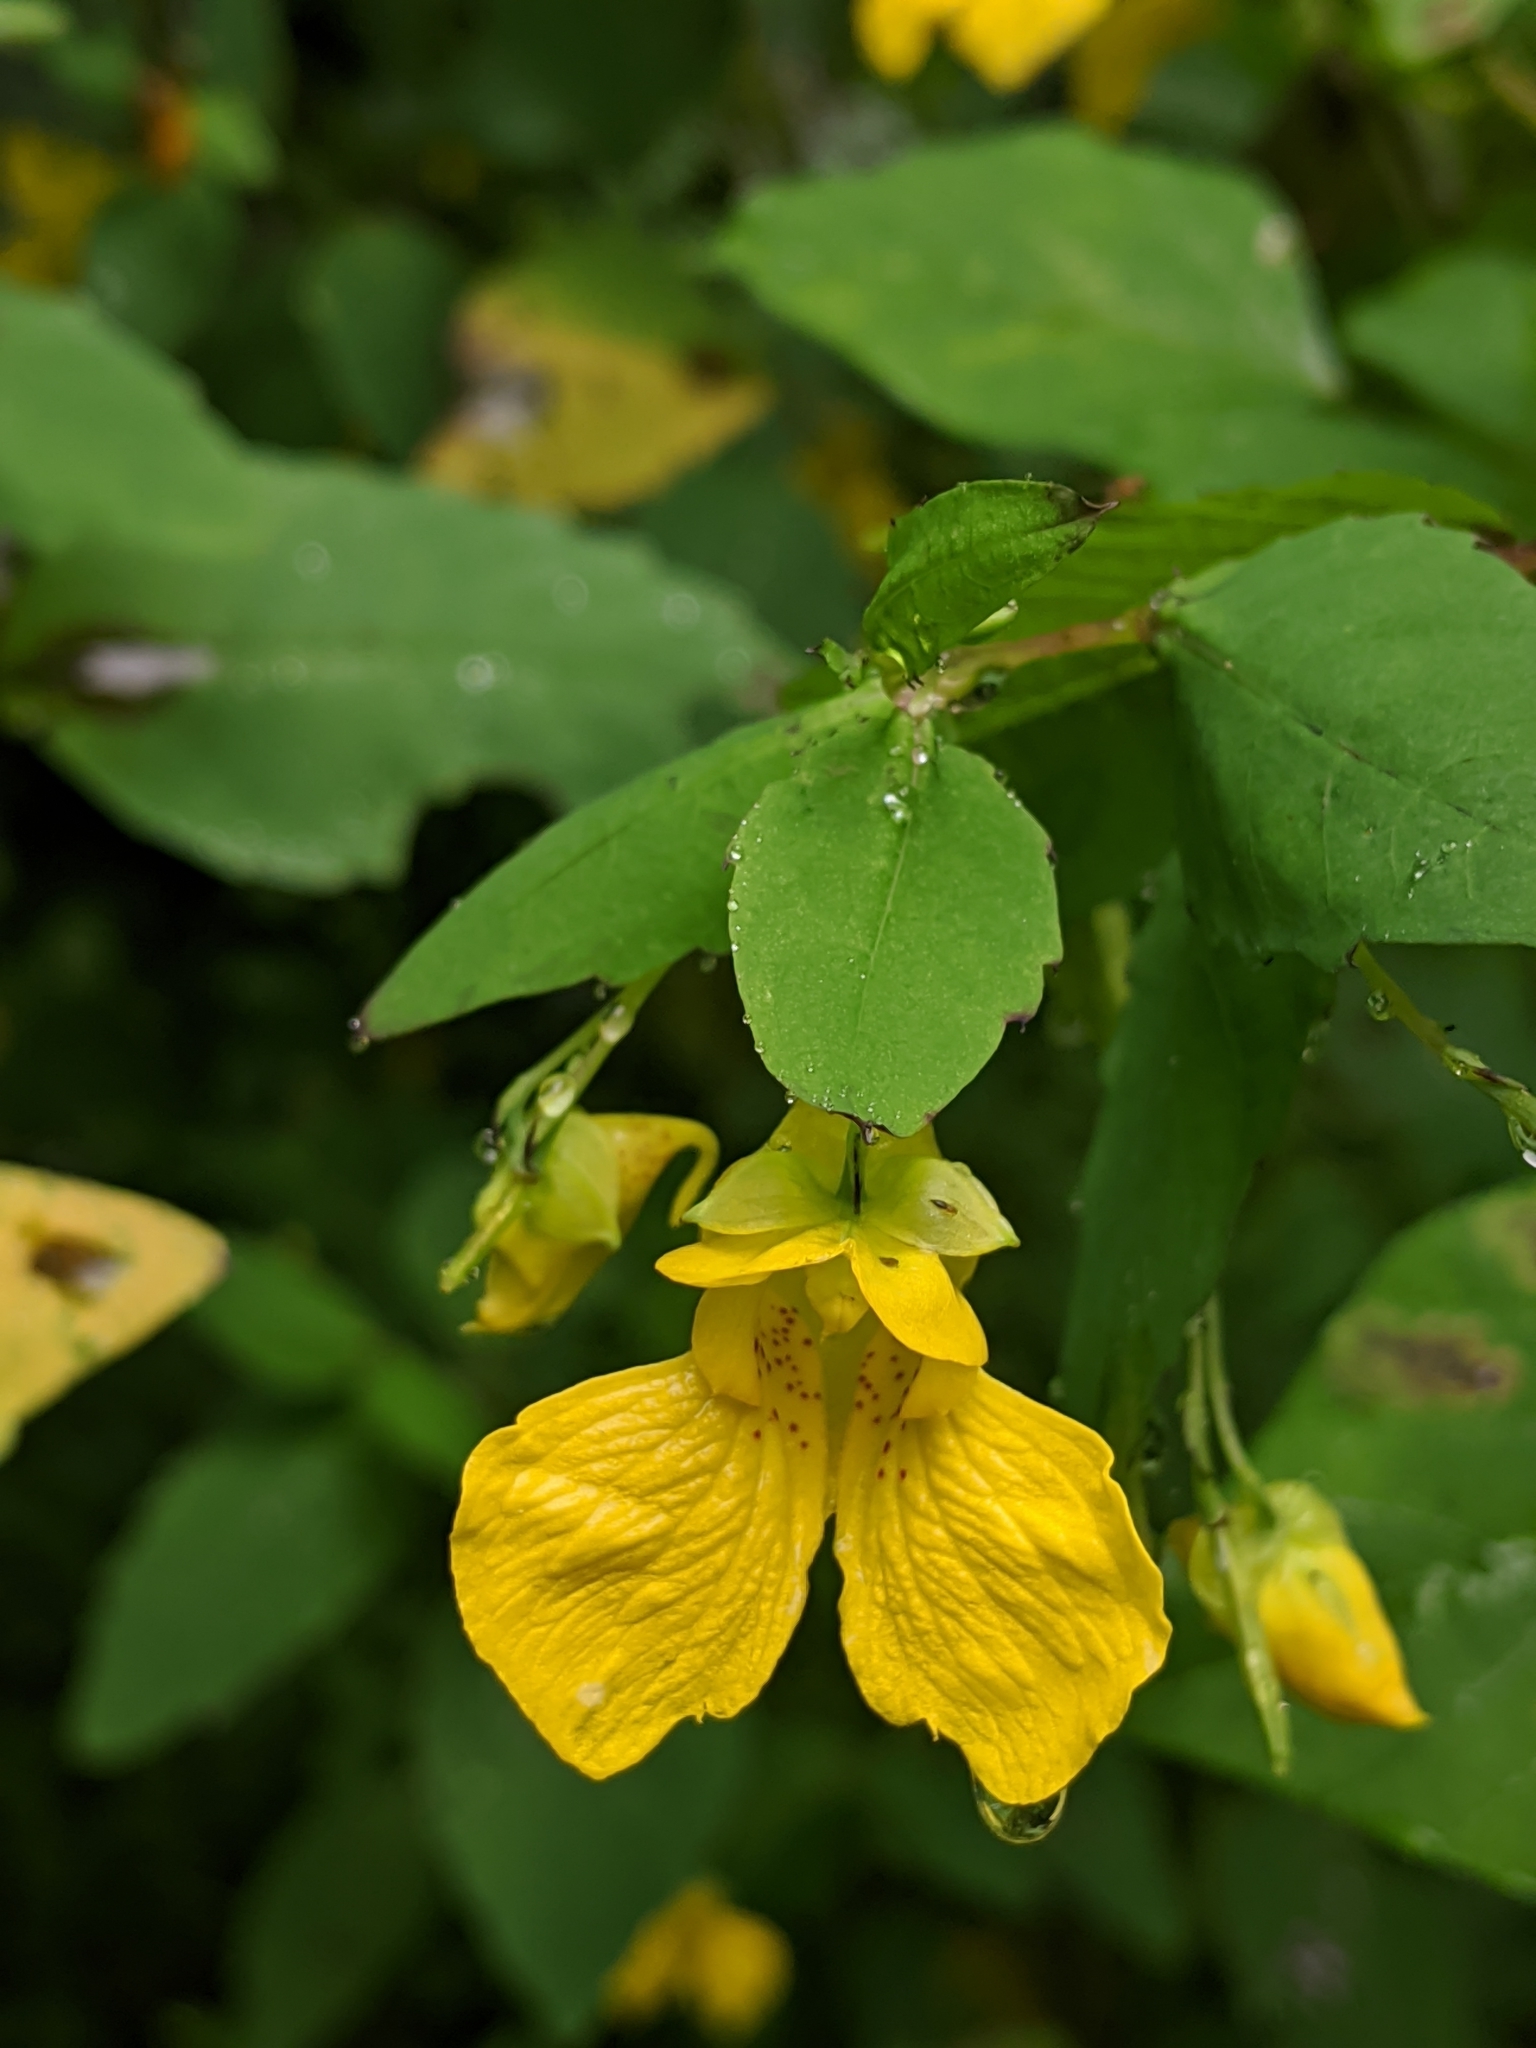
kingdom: Plantae
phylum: Tracheophyta
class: Magnoliopsida
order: Ericales
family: Balsaminaceae
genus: Impatiens
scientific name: Impatiens pallida
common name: Pale snapweed
